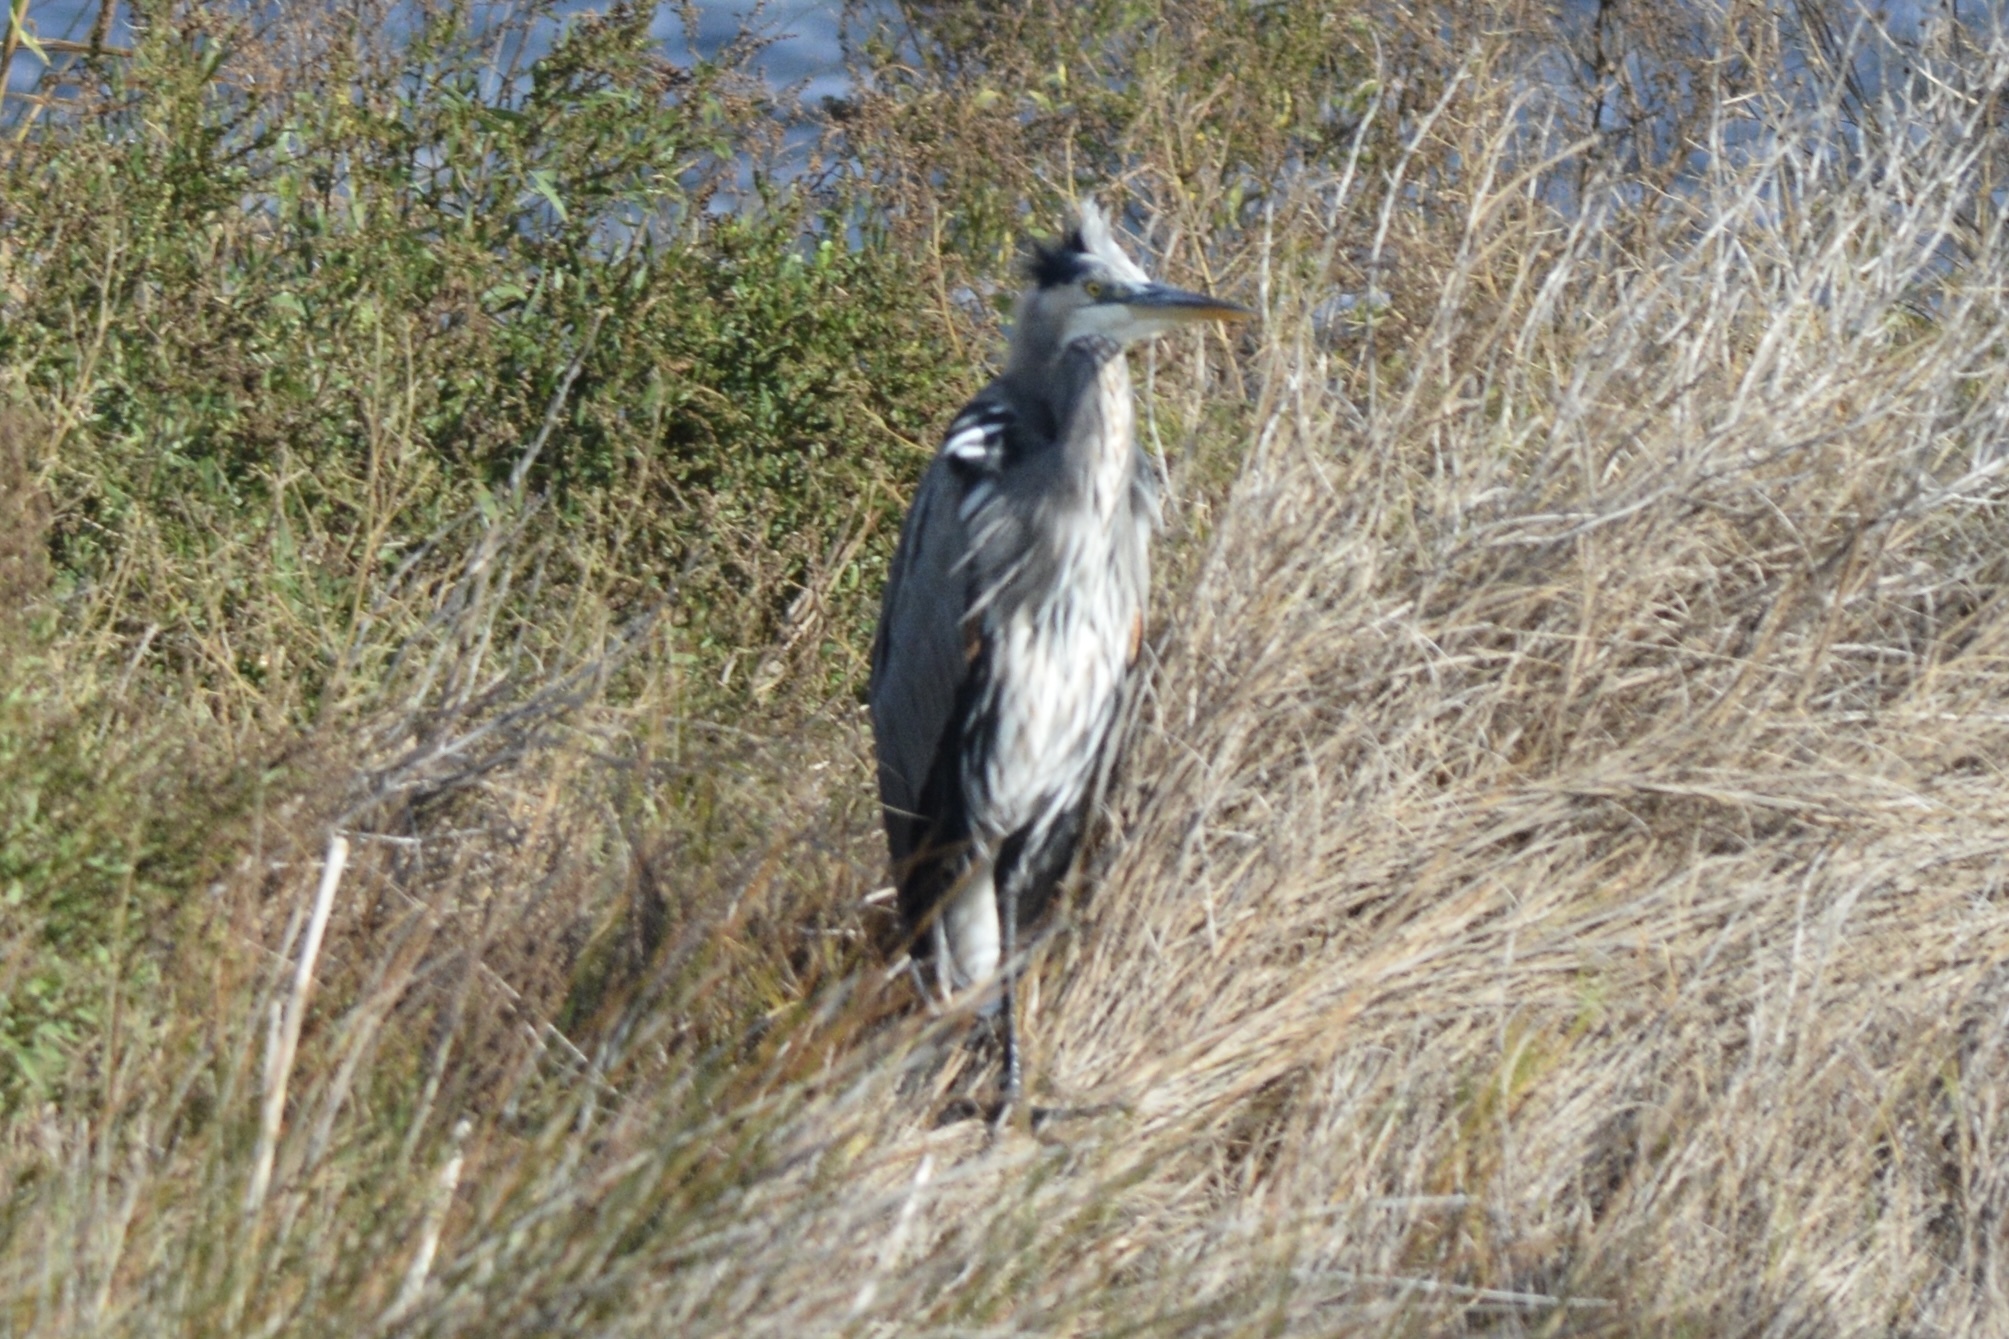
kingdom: Animalia
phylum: Chordata
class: Aves
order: Pelecaniformes
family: Ardeidae
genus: Ardea
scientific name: Ardea herodias
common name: Great blue heron
